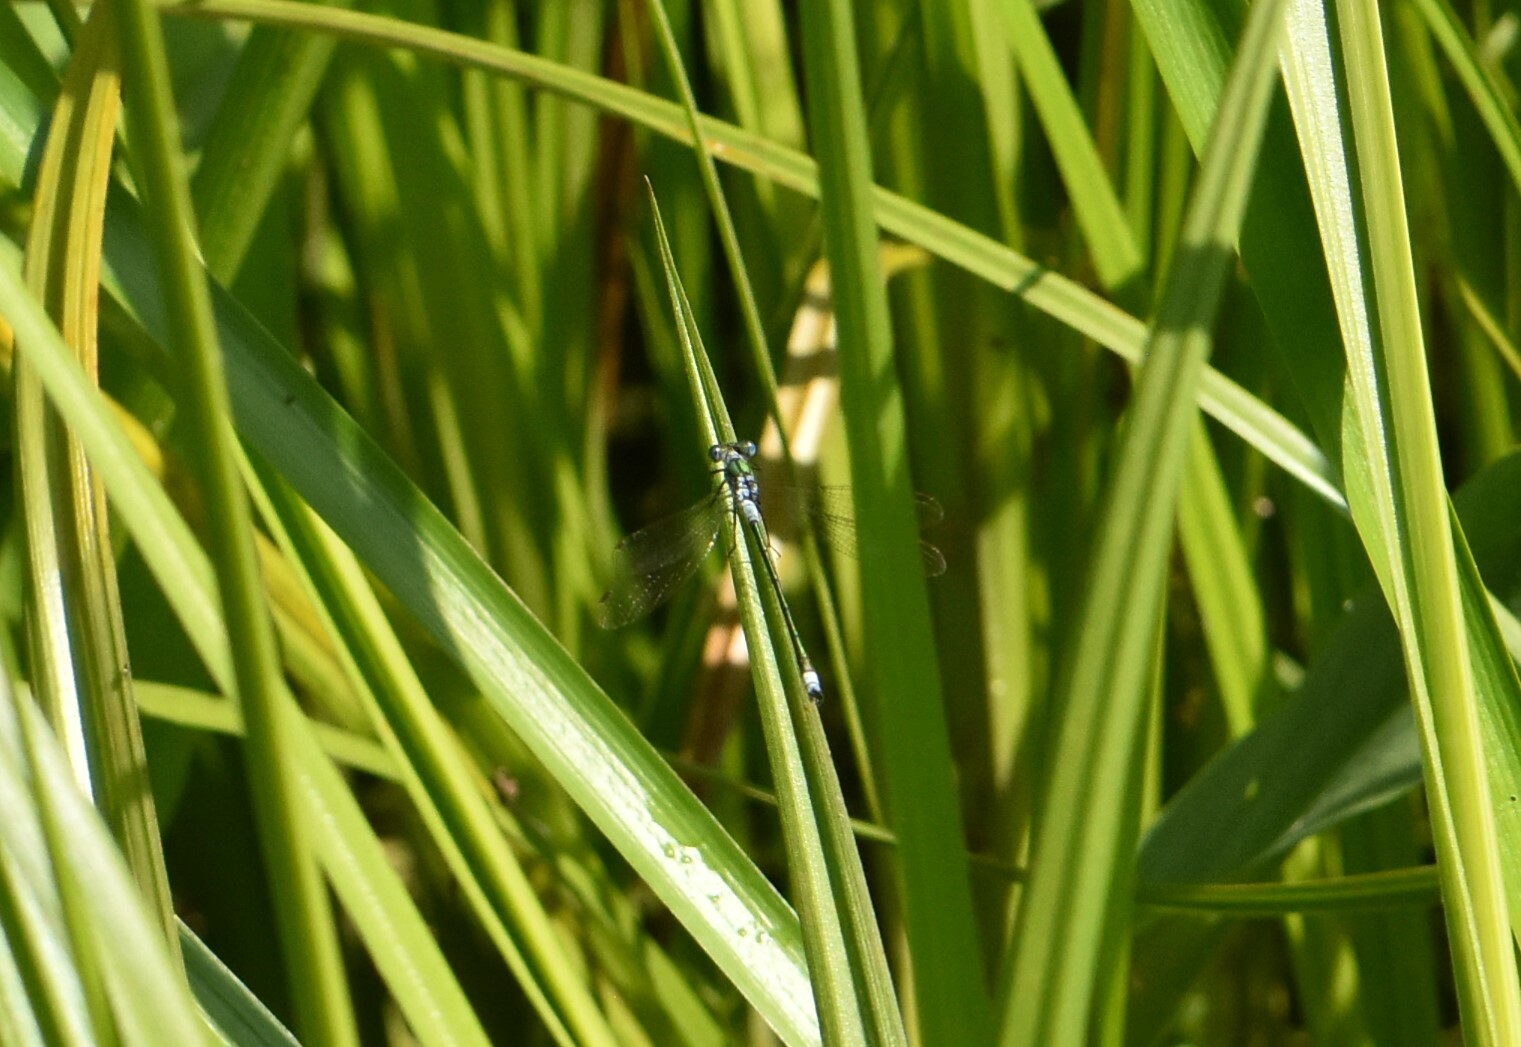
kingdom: Animalia
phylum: Arthropoda
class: Insecta
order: Odonata
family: Lestidae
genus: Lestes
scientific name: Lestes sponsa
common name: Common spreadwing
